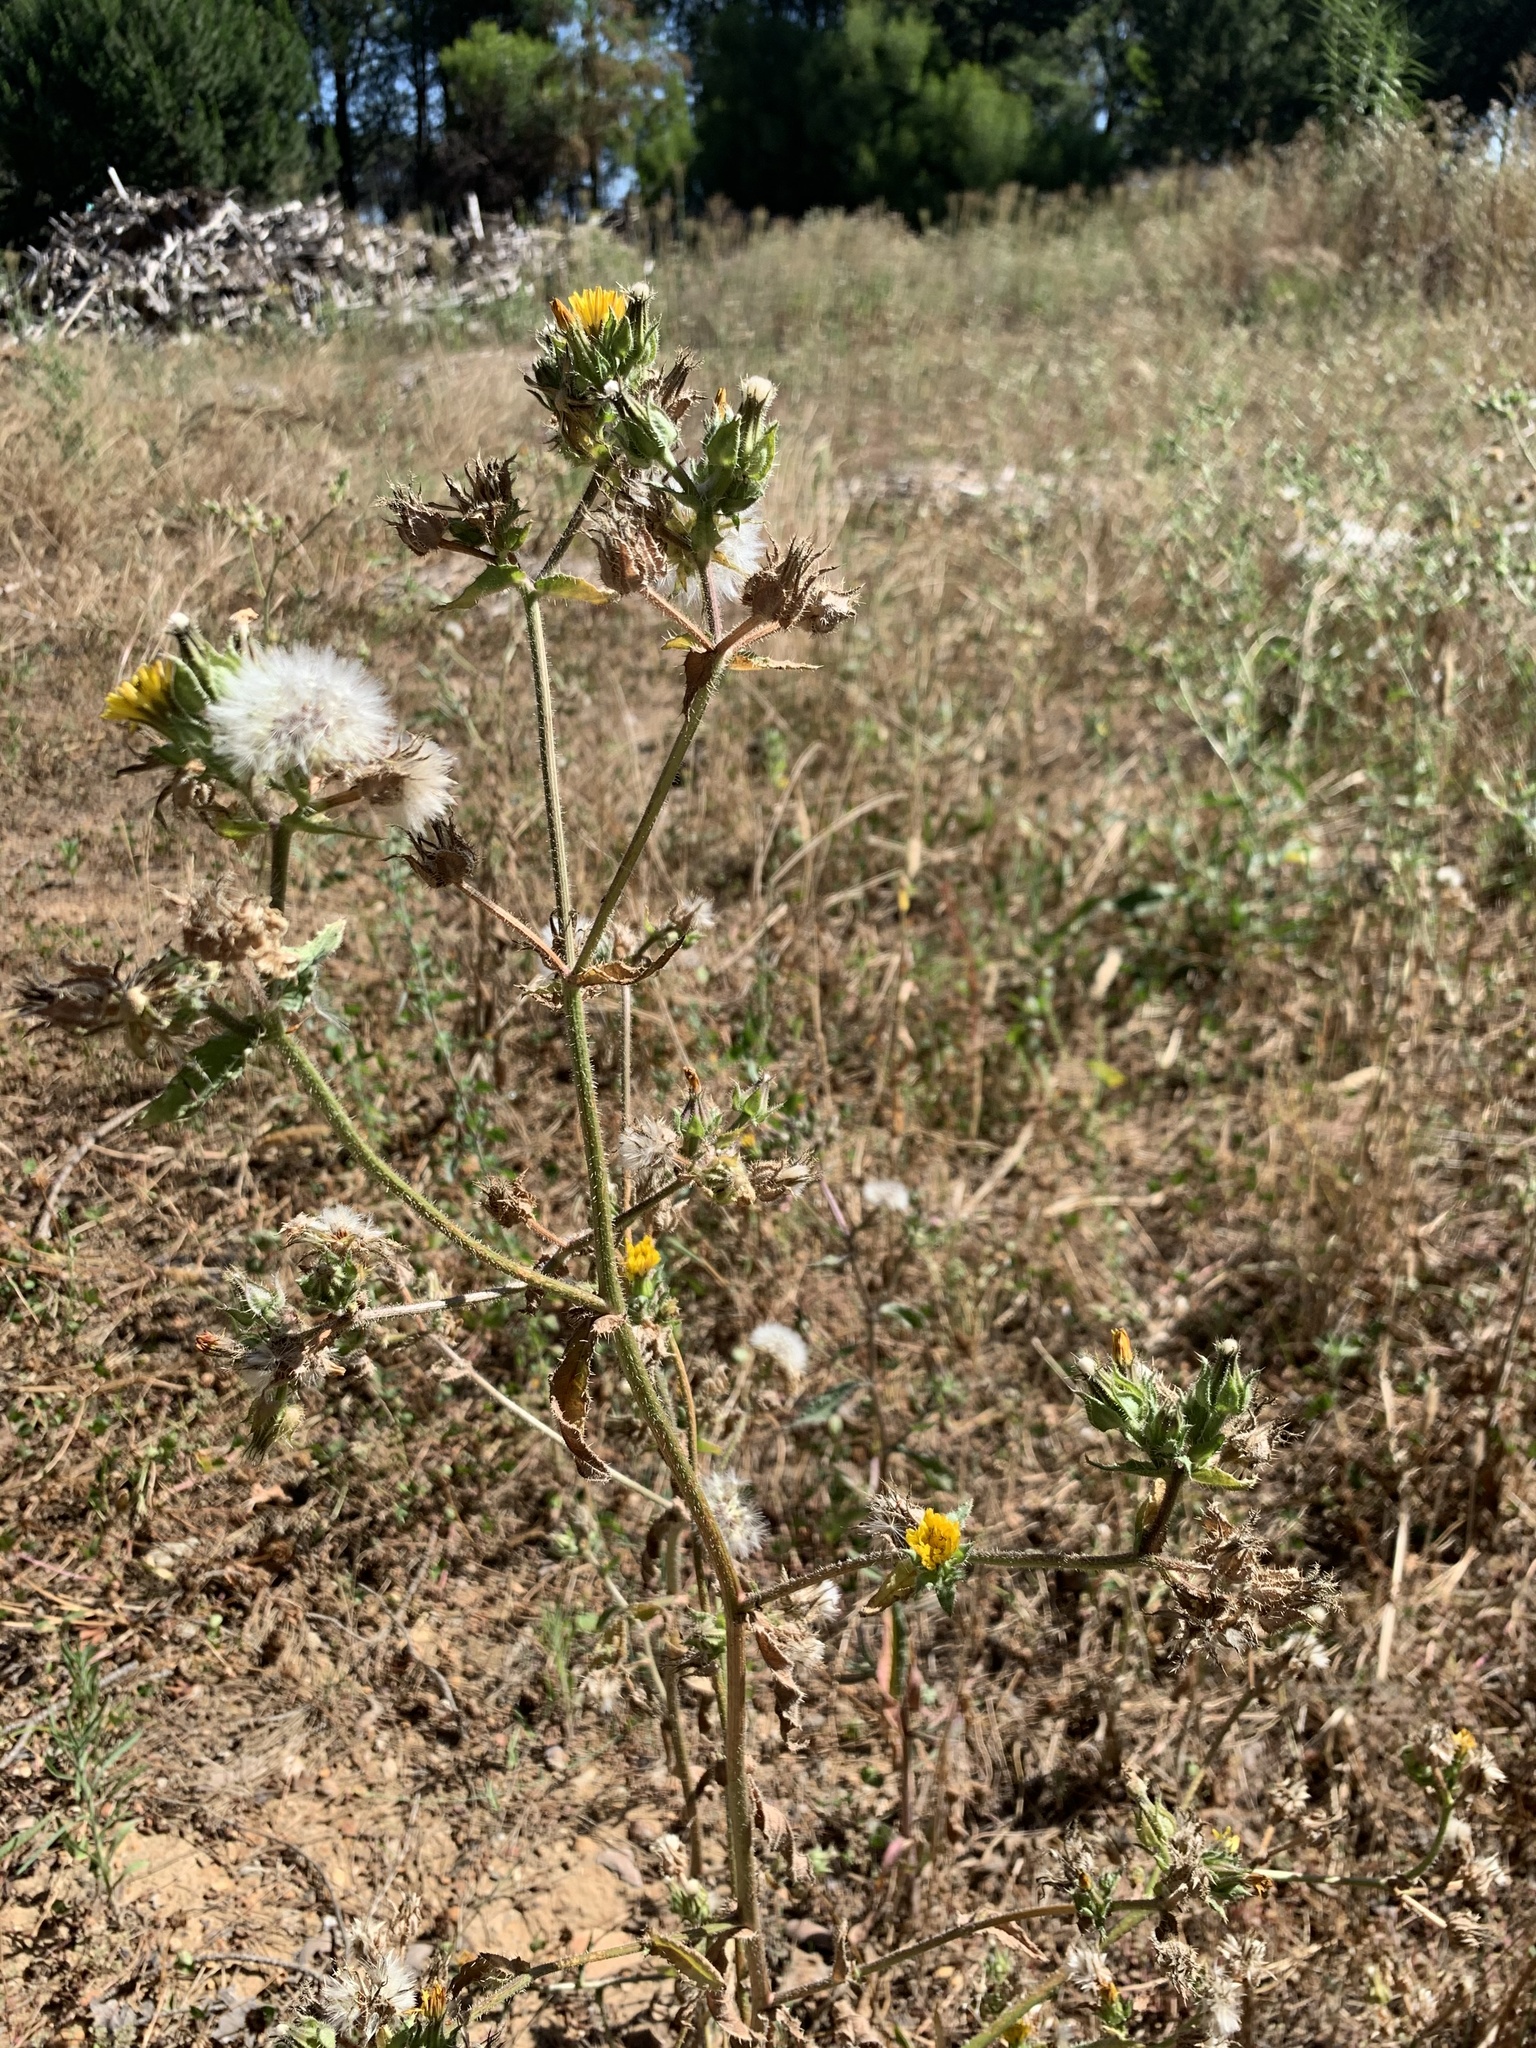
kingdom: Plantae
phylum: Tracheophyta
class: Magnoliopsida
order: Asterales
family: Asteraceae
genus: Helminthotheca
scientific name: Helminthotheca echioides
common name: Ox-tongue
